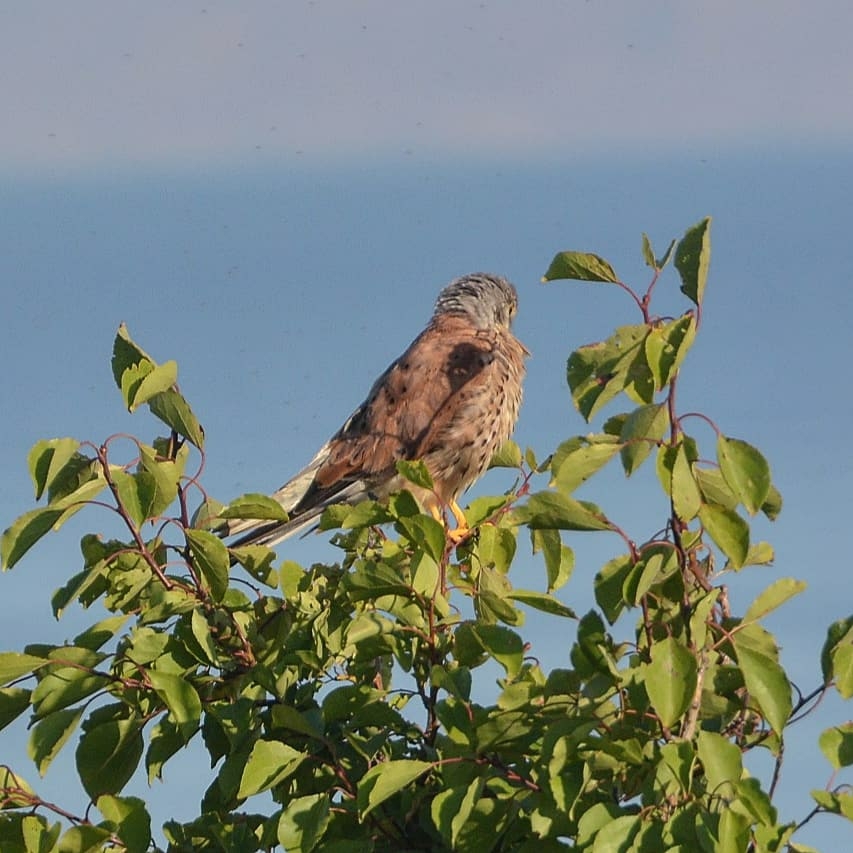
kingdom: Animalia
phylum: Chordata
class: Aves
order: Falconiformes
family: Falconidae
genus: Falco
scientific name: Falco tinnunculus
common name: Common kestrel
